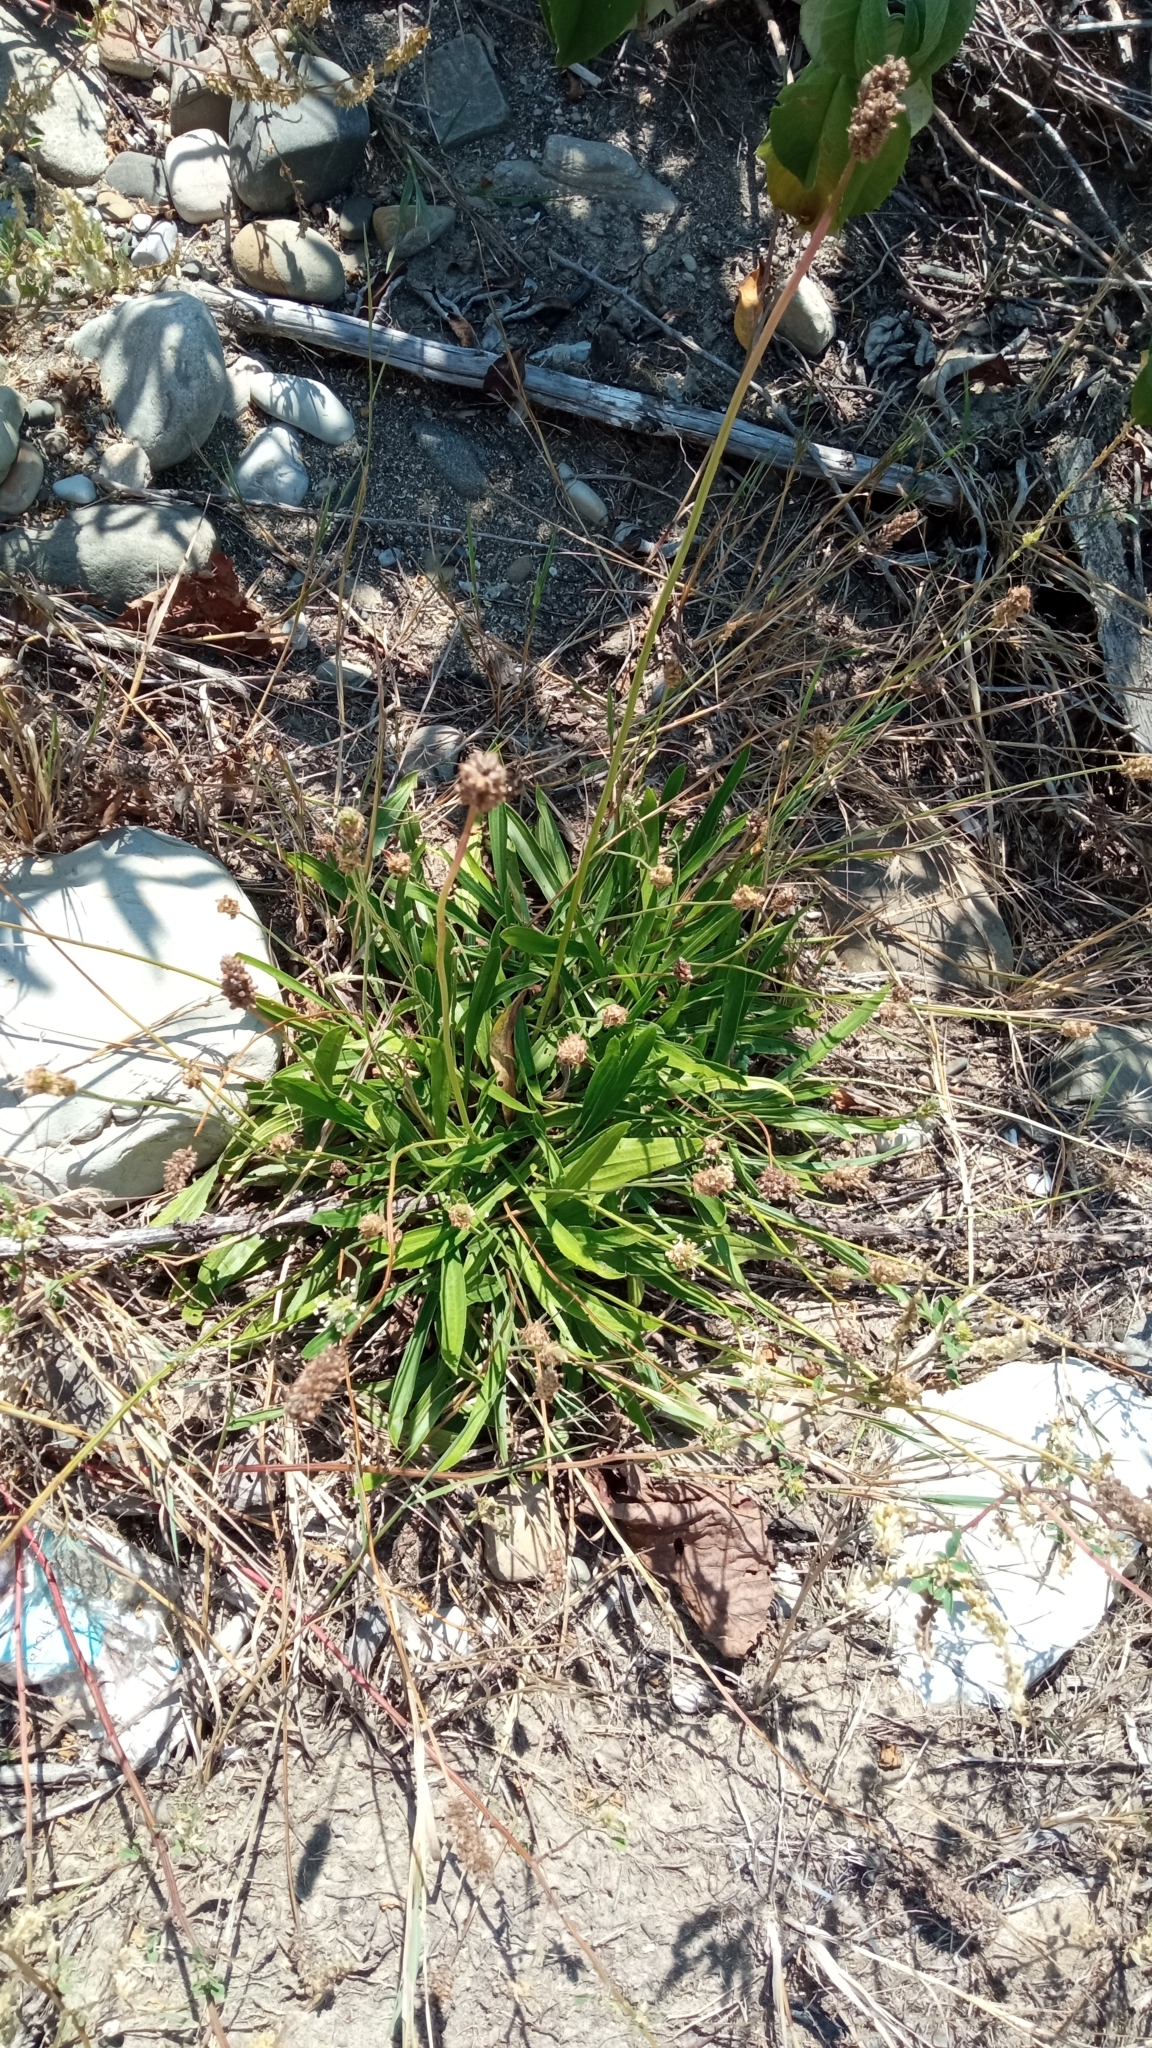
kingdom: Plantae
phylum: Tracheophyta
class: Magnoliopsida
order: Lamiales
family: Plantaginaceae
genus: Plantago
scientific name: Plantago lanceolata
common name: Ribwort plantain
